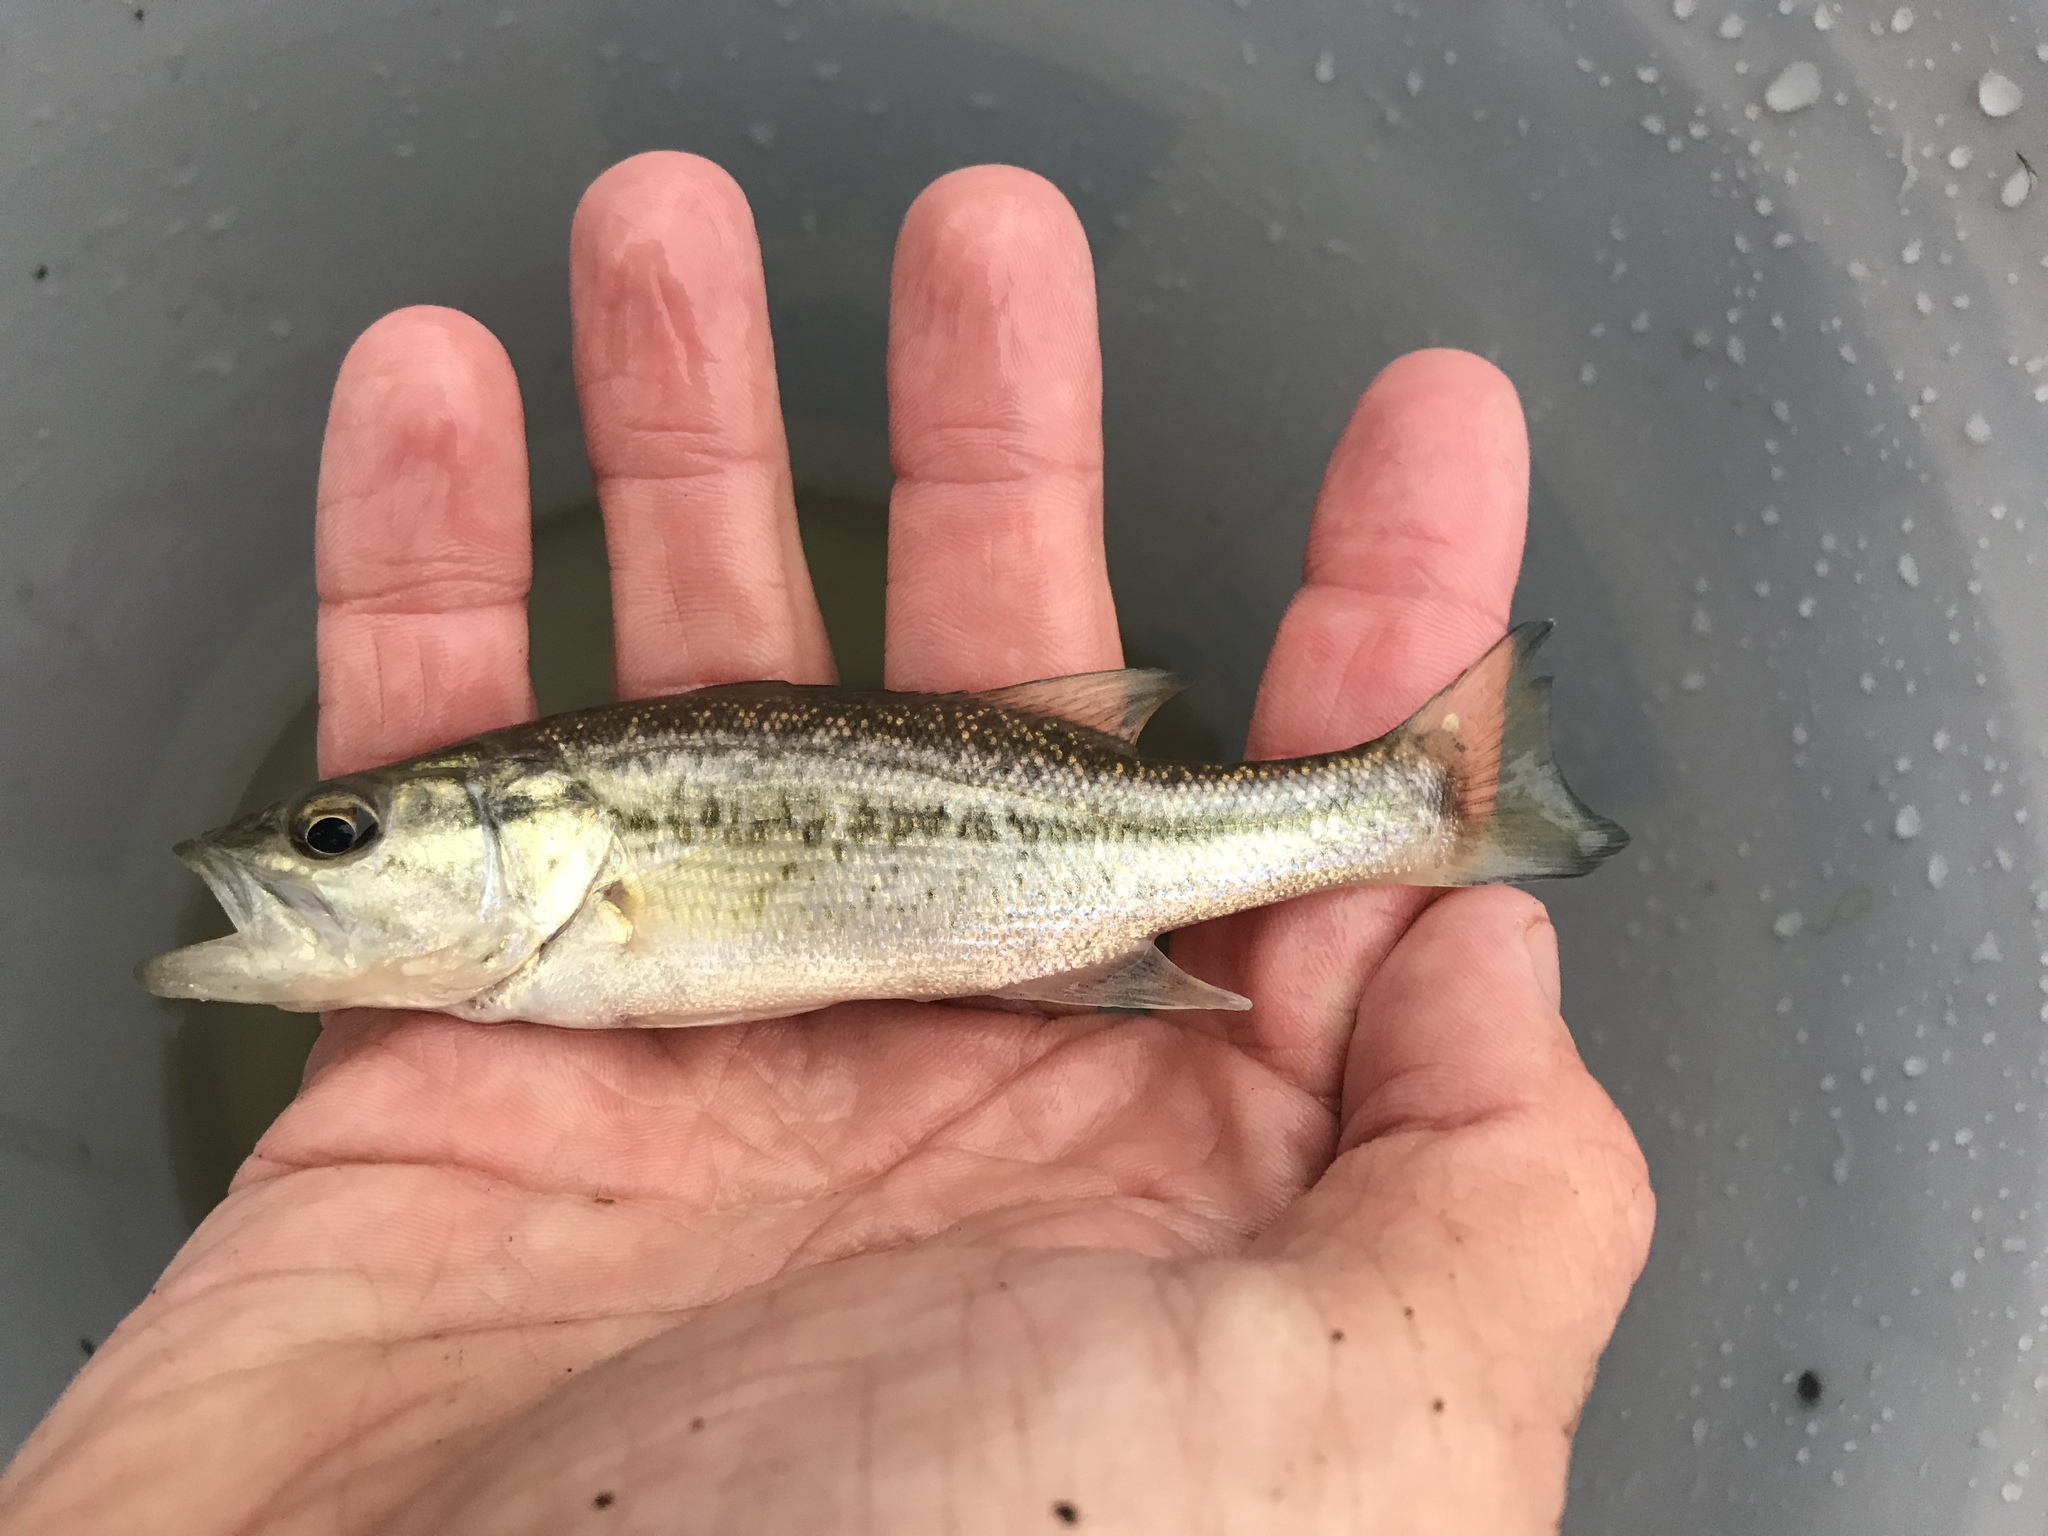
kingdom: Animalia
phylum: Chordata
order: Perciformes
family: Centrarchidae
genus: Micropterus
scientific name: Micropterus
